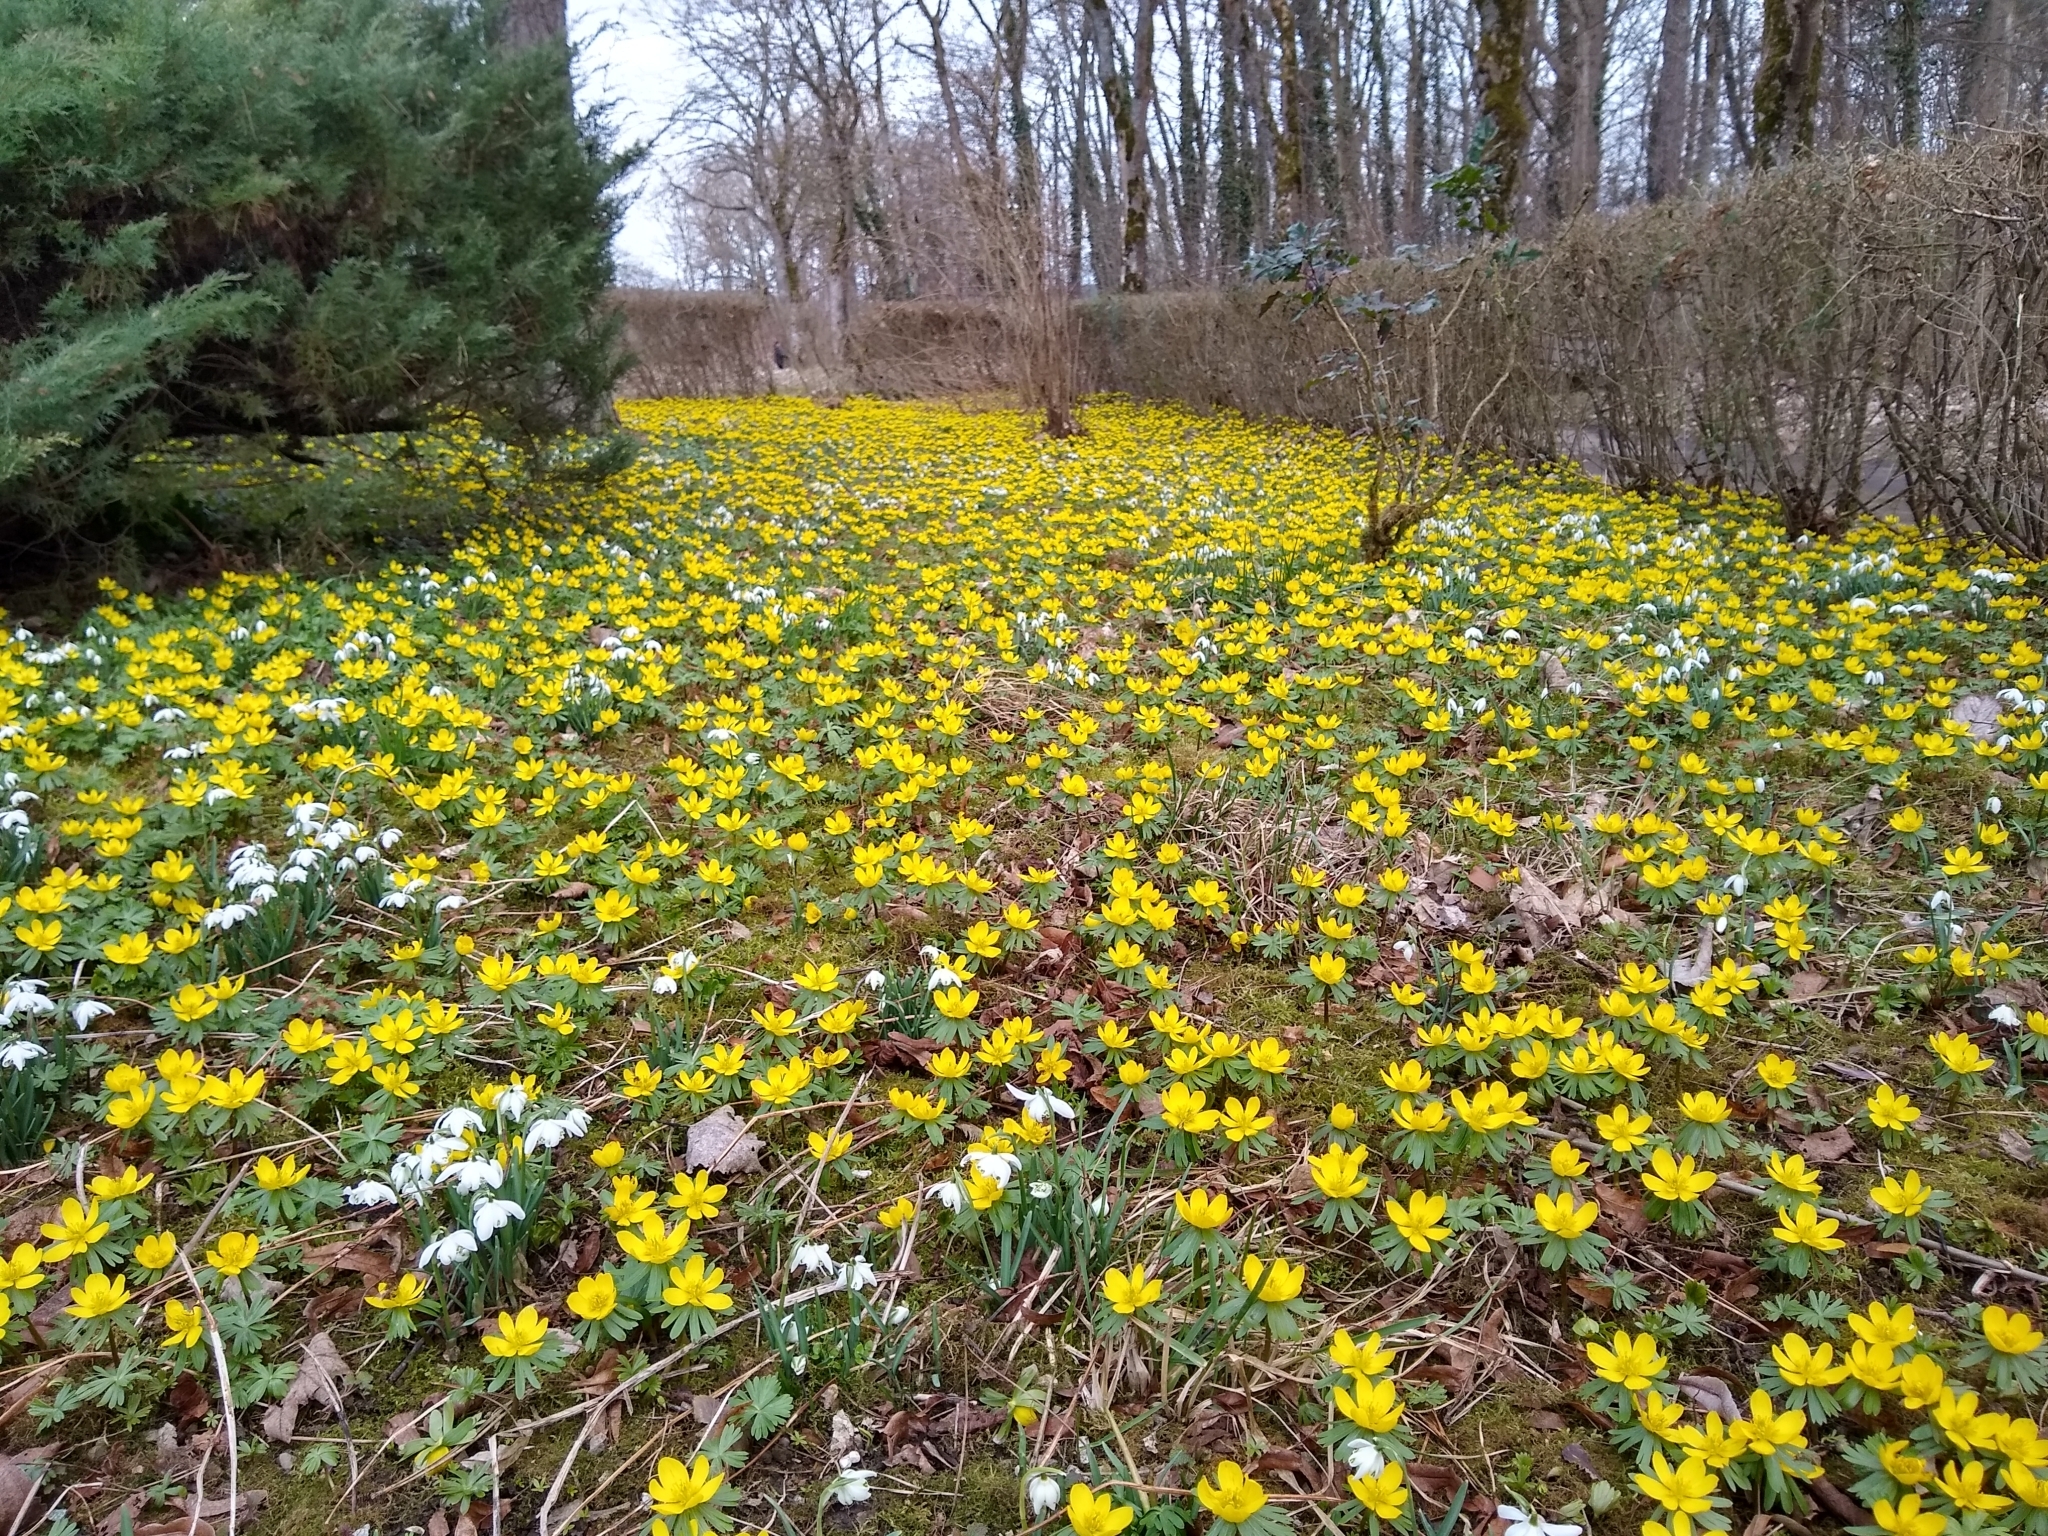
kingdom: Plantae
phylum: Tracheophyta
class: Magnoliopsida
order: Ranunculales
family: Ranunculaceae
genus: Eranthis
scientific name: Eranthis hyemalis
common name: Winter aconite
